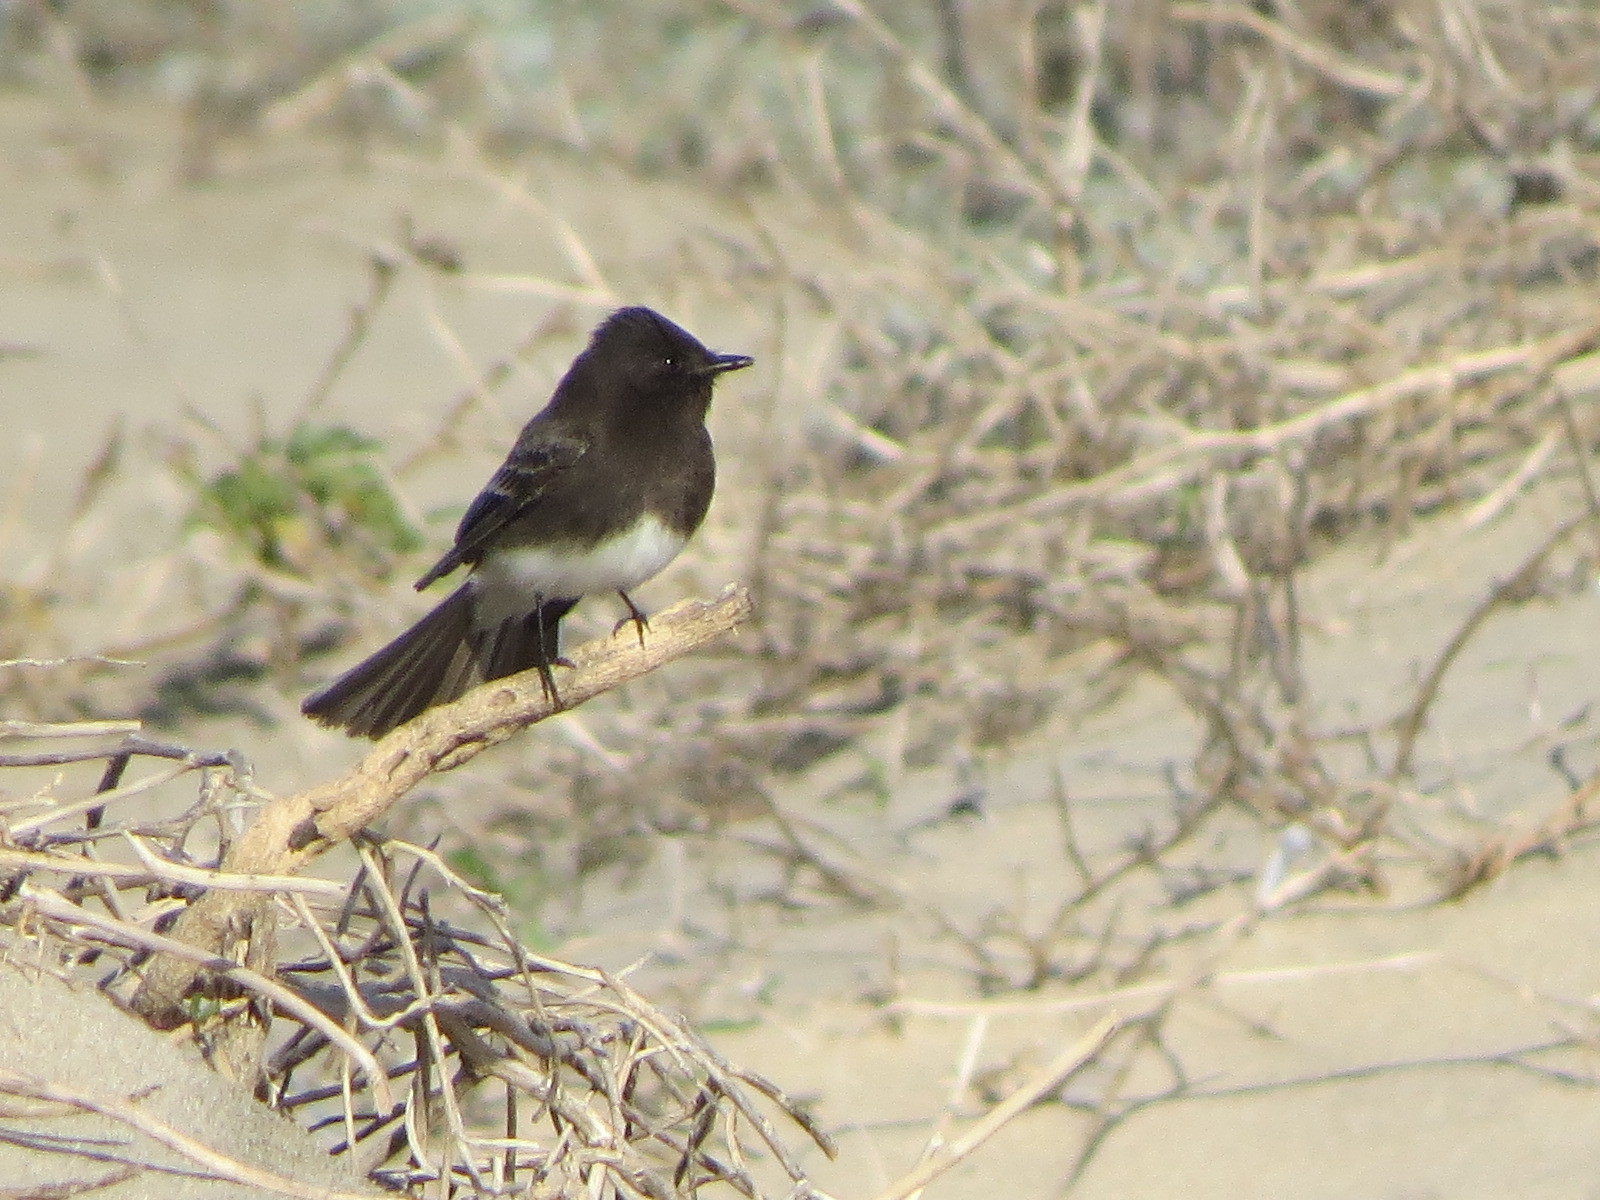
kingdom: Animalia
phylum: Chordata
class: Aves
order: Passeriformes
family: Tyrannidae
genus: Sayornis
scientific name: Sayornis nigricans
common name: Black phoebe
